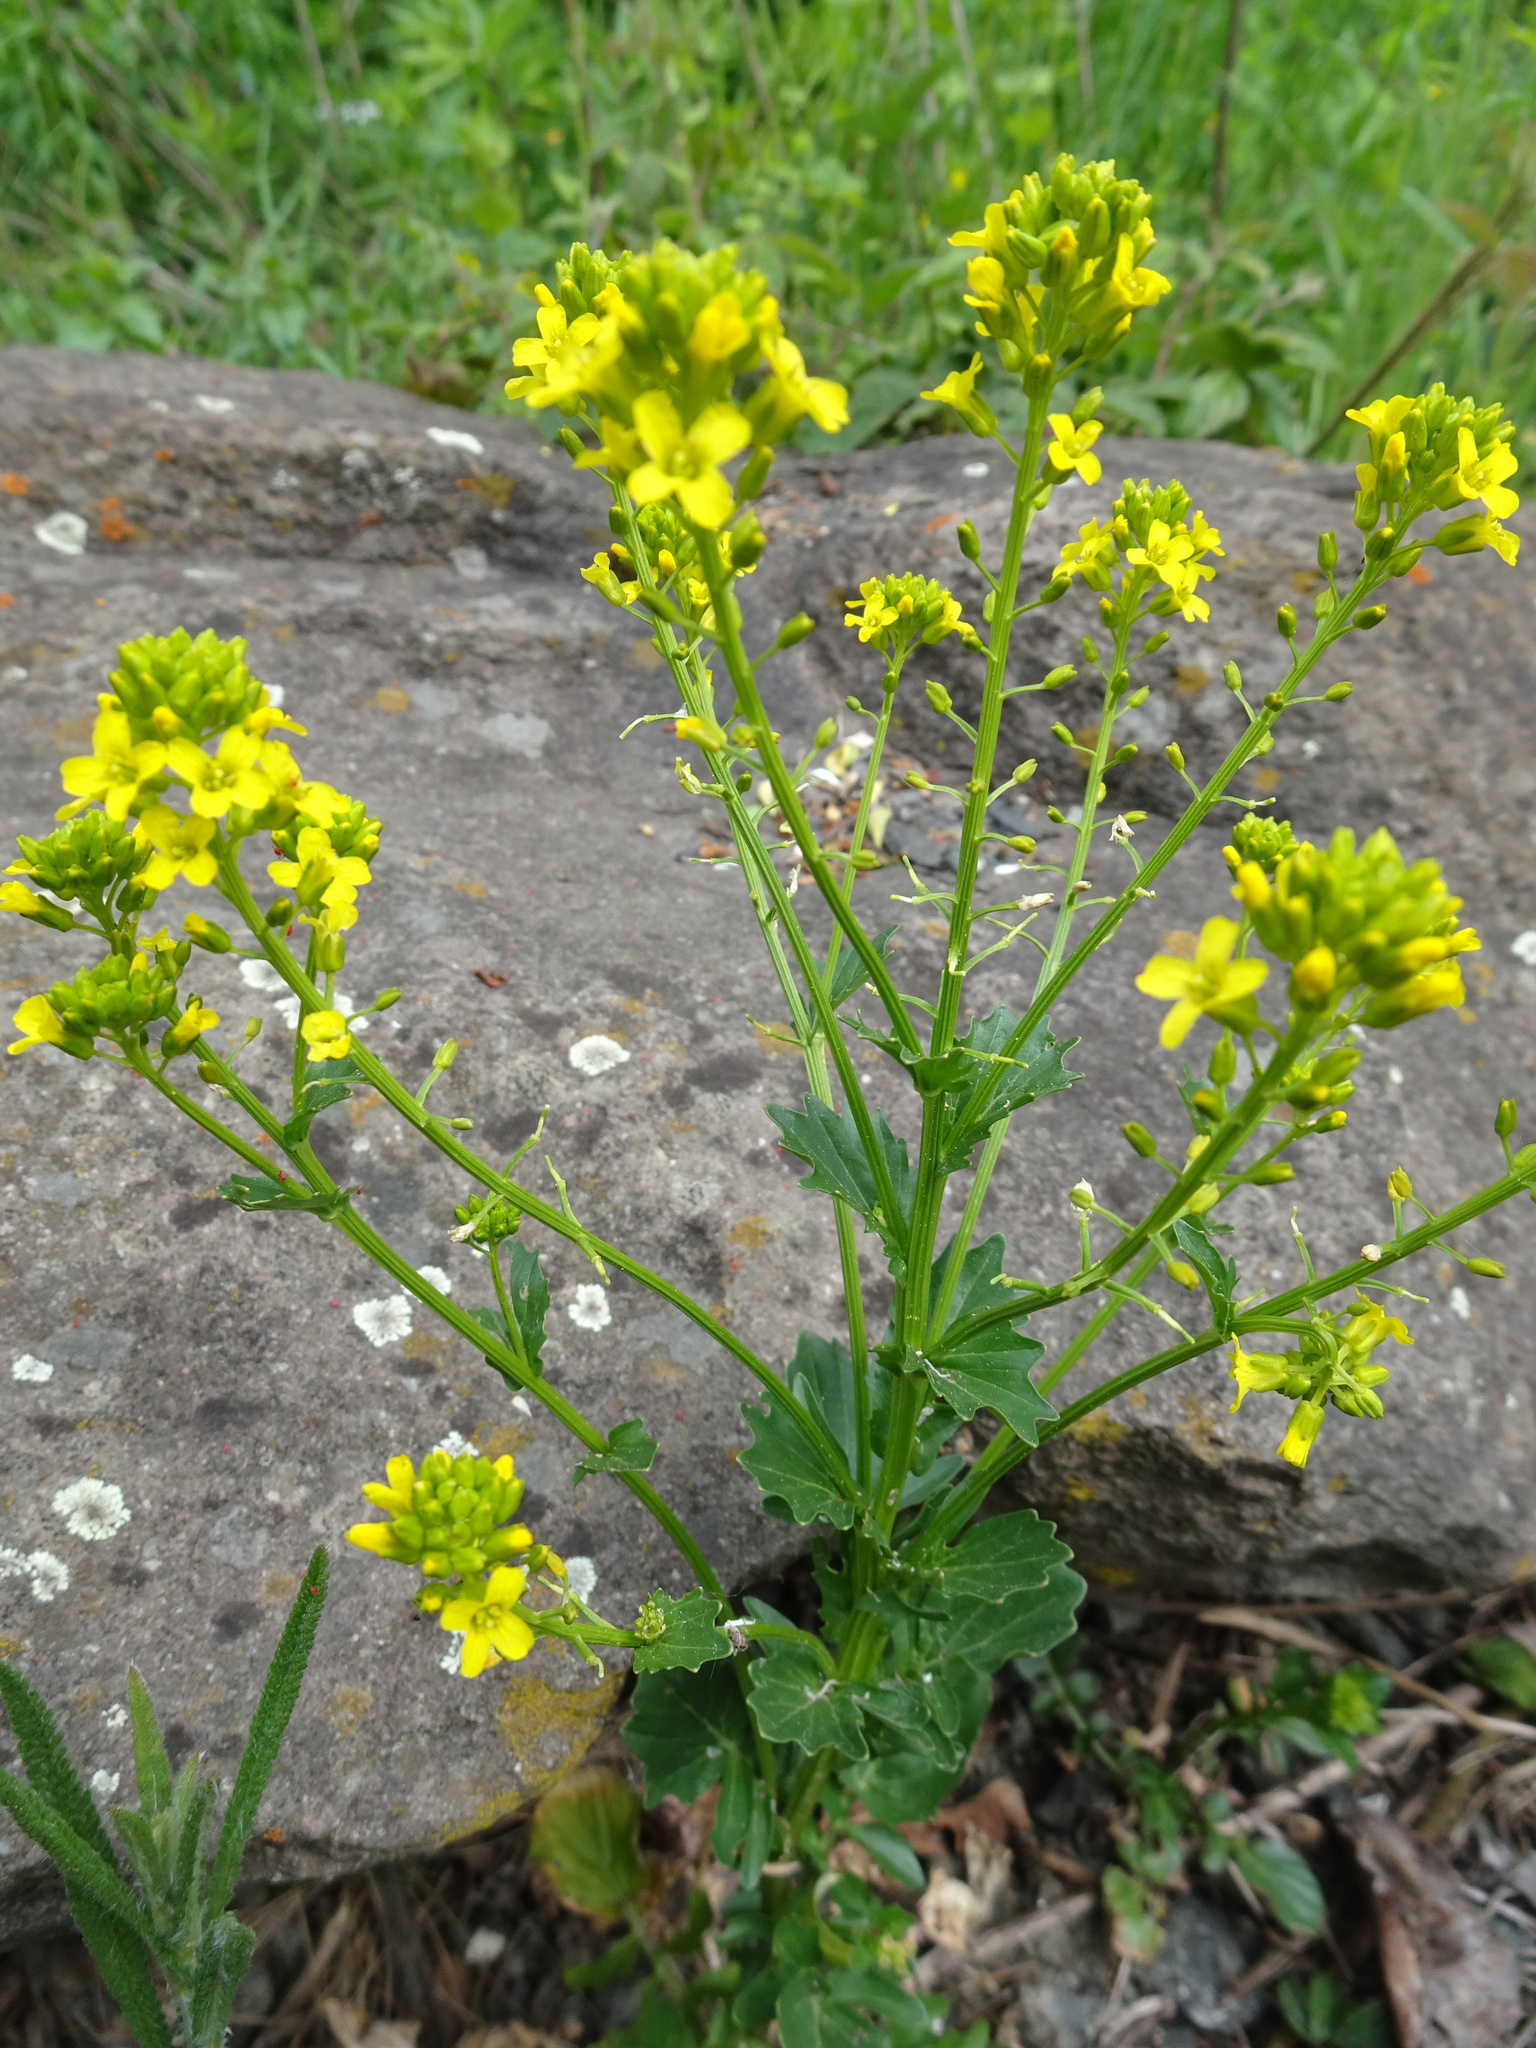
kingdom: Plantae
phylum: Tracheophyta
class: Magnoliopsida
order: Brassicales
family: Brassicaceae
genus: Barbarea
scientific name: Barbarea vulgaris
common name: Cressy-greens
